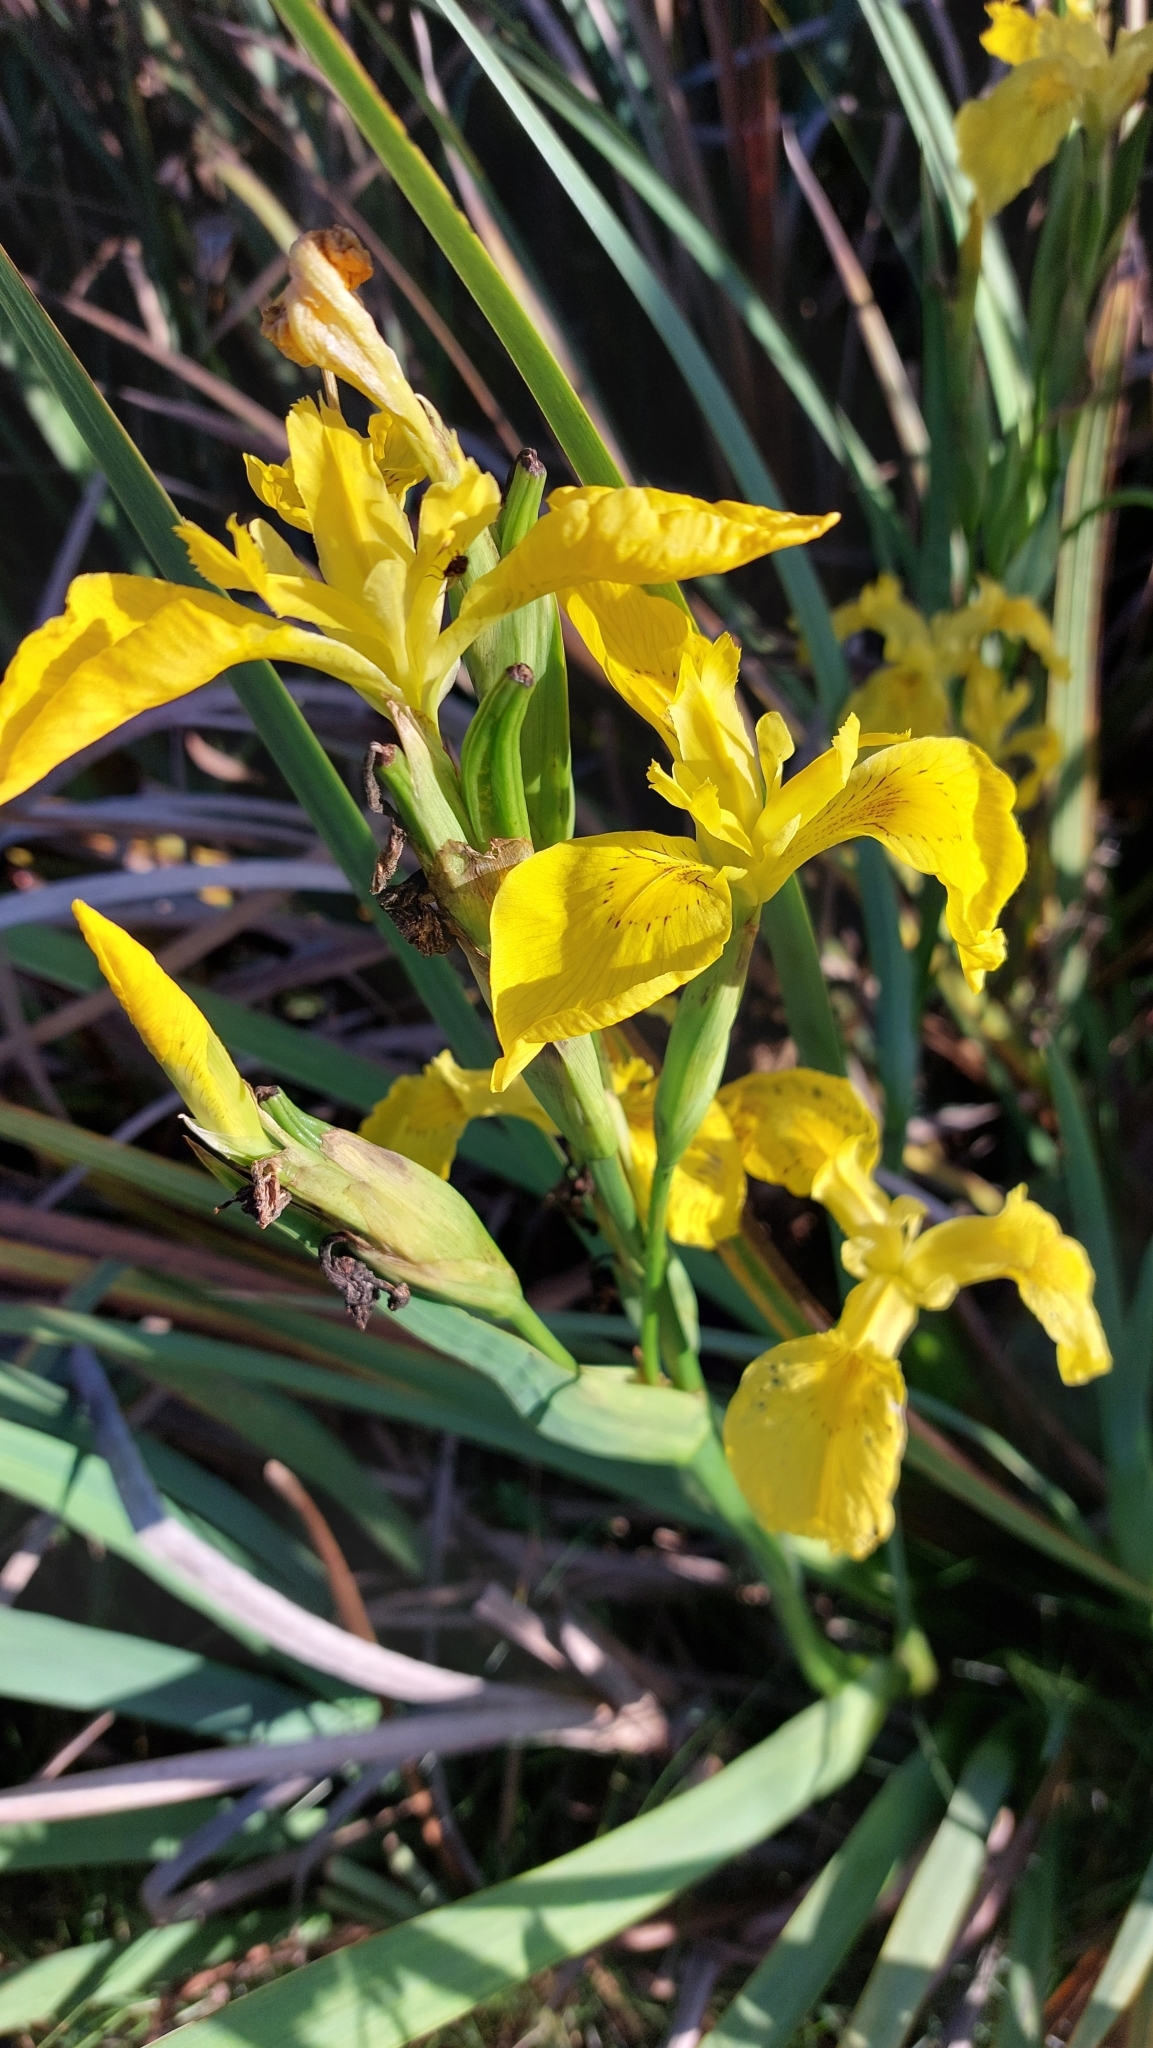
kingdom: Plantae
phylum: Tracheophyta
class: Liliopsida
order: Asparagales
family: Iridaceae
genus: Iris
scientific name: Iris pseudacorus
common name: Yellow flag
